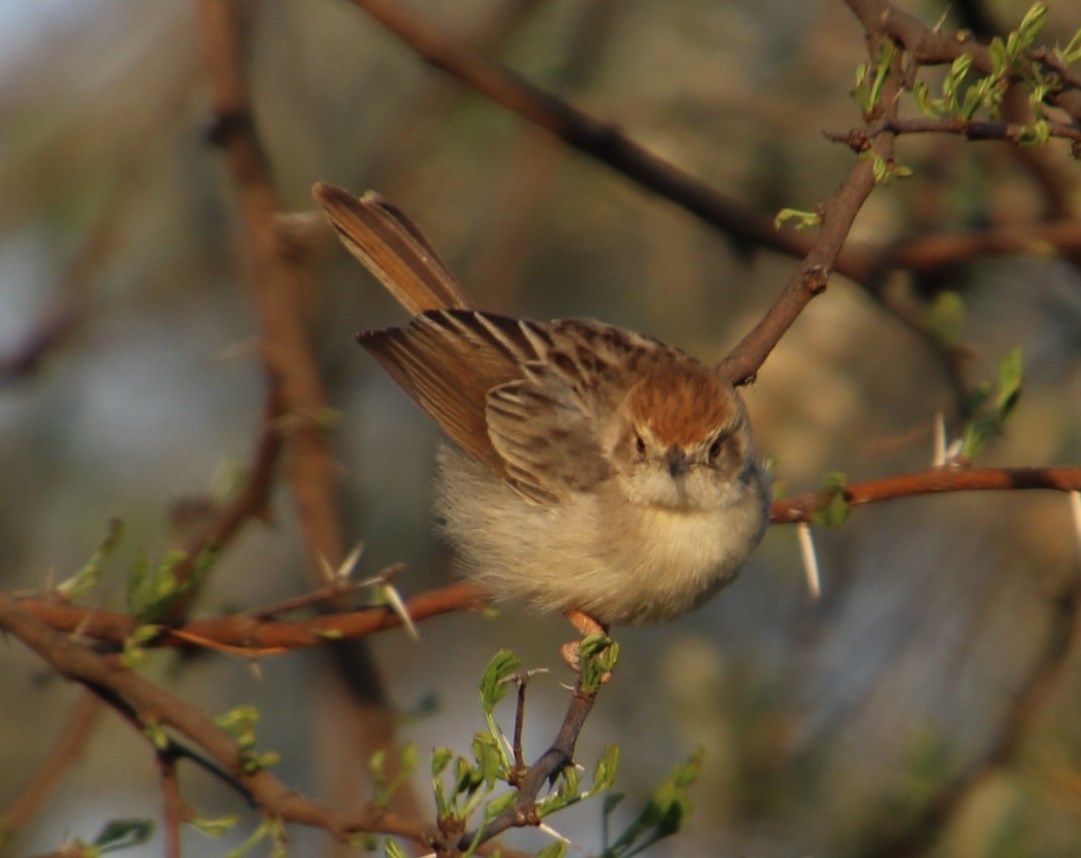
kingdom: Animalia
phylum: Chordata
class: Aves
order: Passeriformes
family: Cisticolidae
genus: Cisticola
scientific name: Cisticola chiniana
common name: Rattling cisticola
